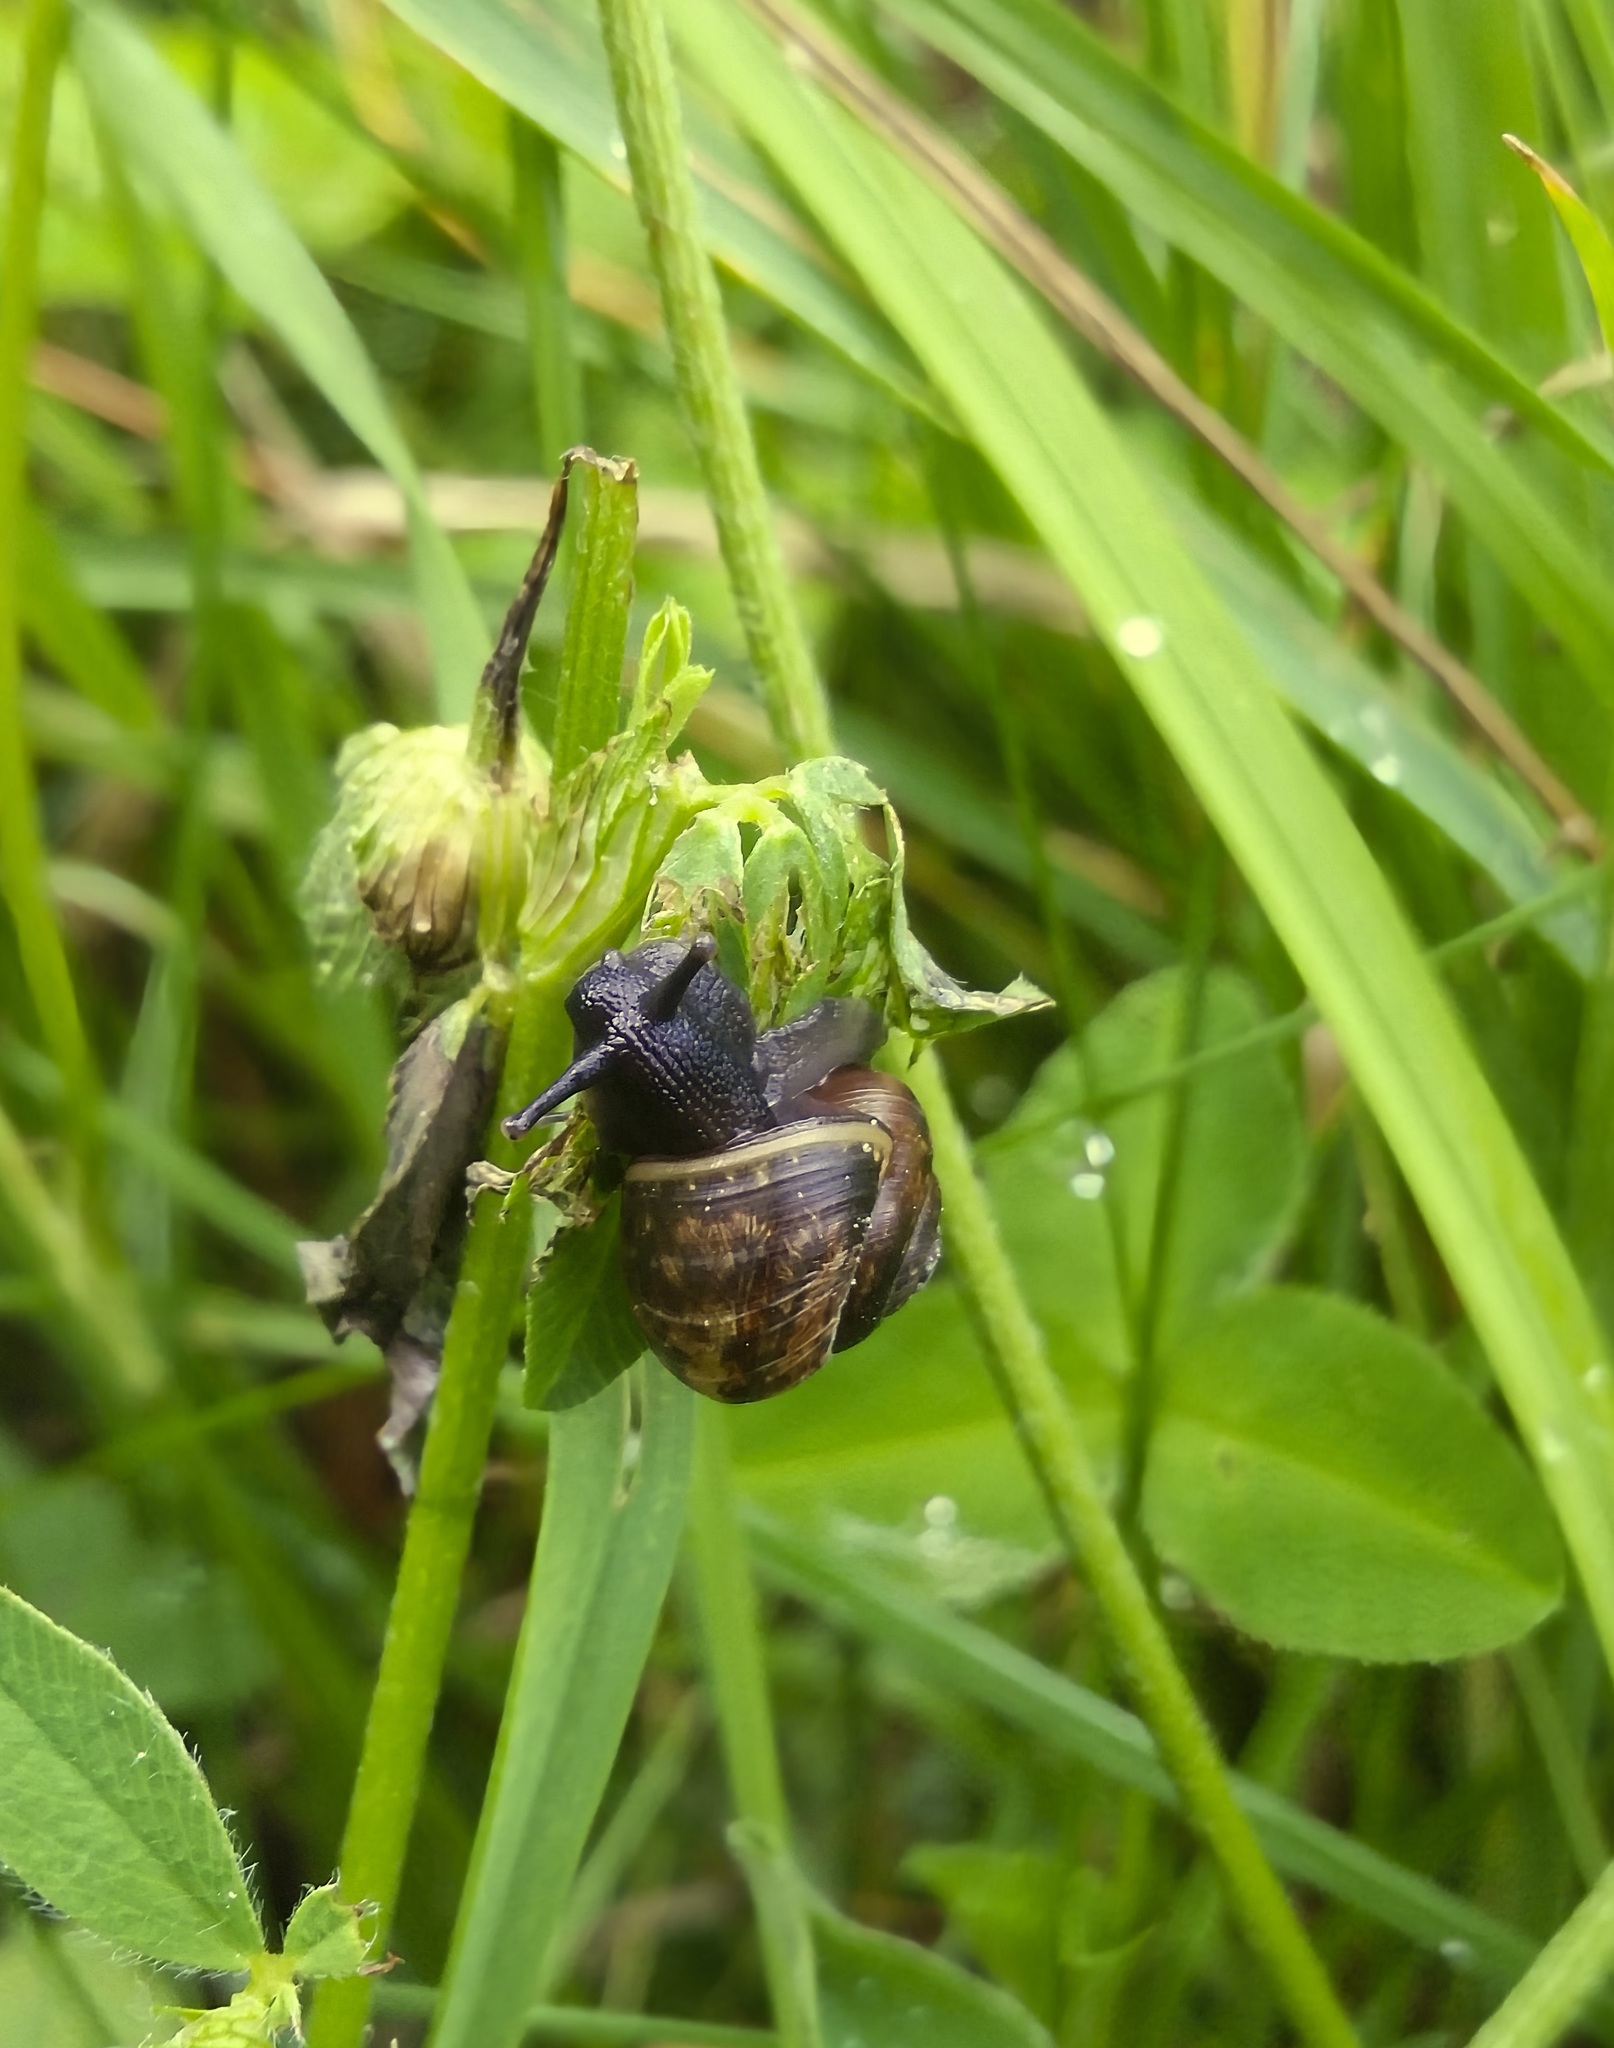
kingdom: Animalia
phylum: Mollusca
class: Gastropoda
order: Stylommatophora
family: Helicidae
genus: Arianta
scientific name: Arianta arbustorum
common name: Copse snail
